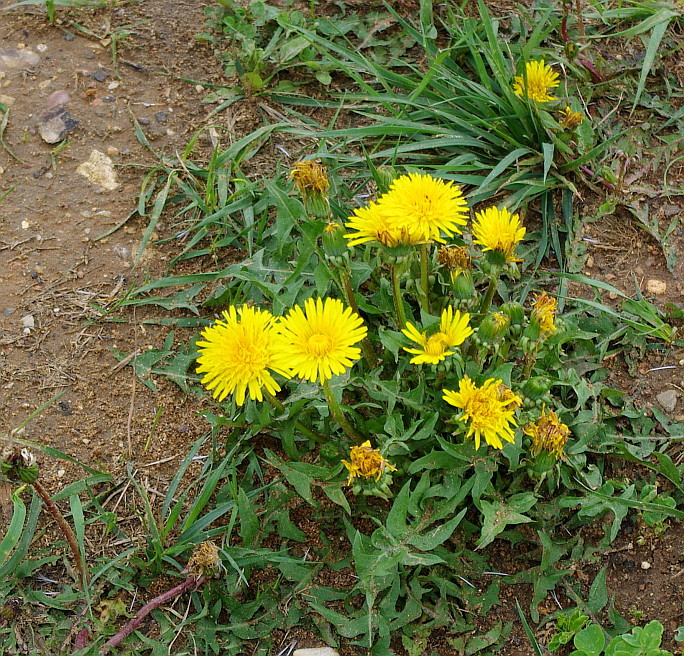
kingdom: Plantae
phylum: Tracheophyta
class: Magnoliopsida
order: Asterales
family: Asteraceae
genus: Taraxacum
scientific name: Taraxacum officinale
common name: Common dandelion
